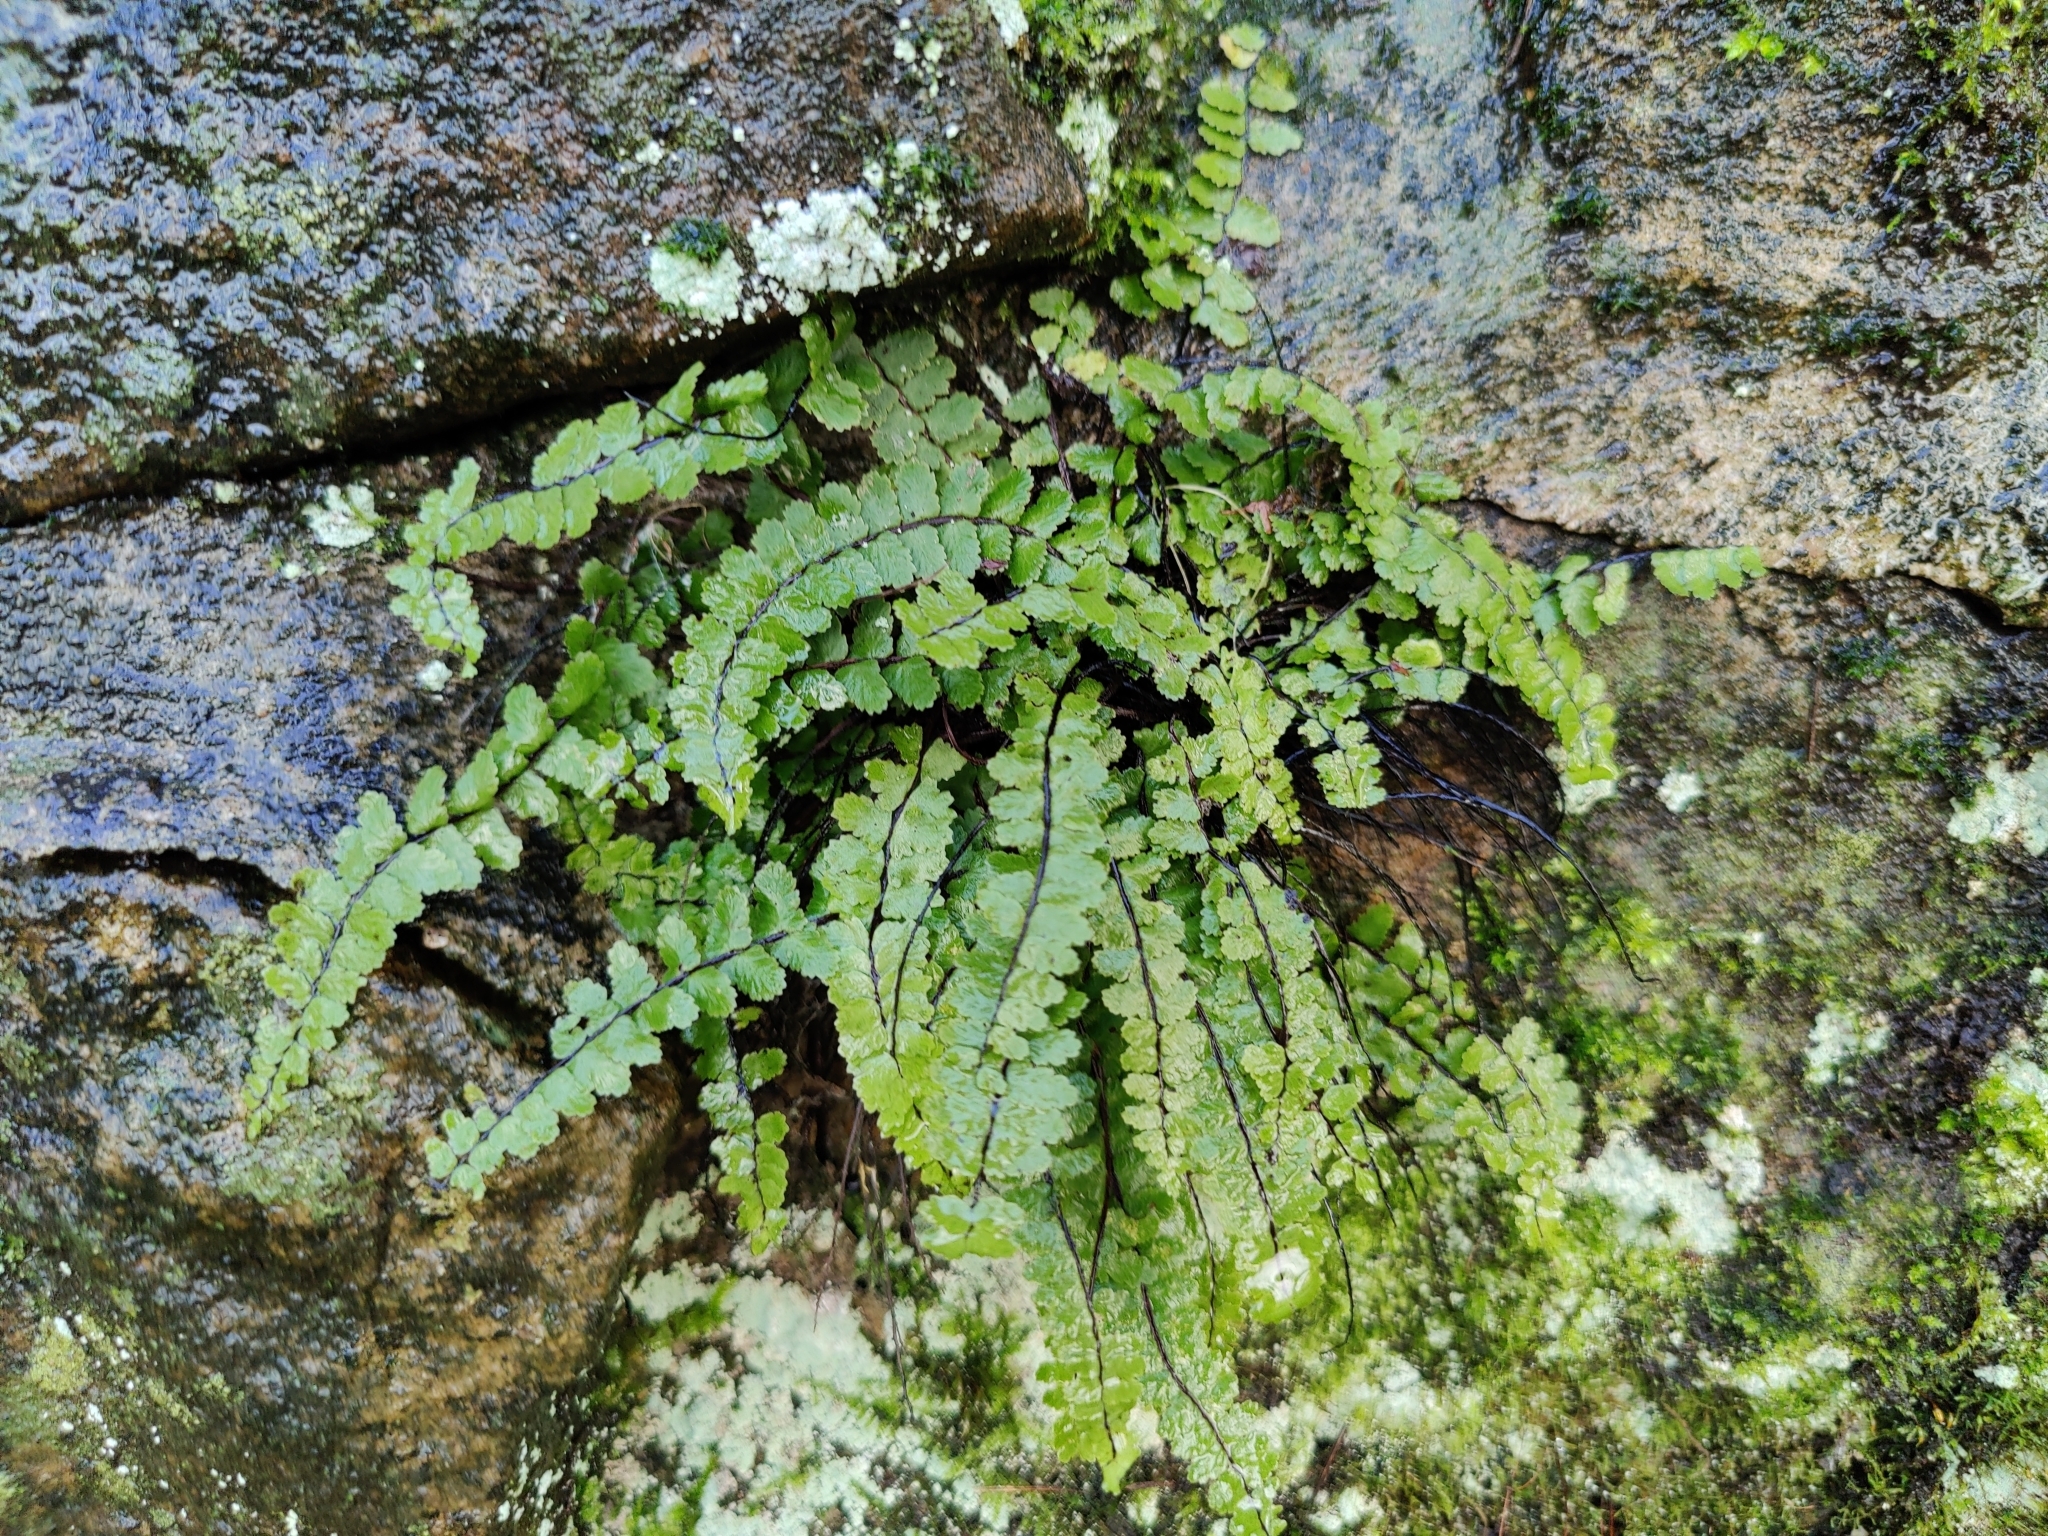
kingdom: Plantae
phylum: Tracheophyta
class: Polypodiopsida
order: Polypodiales
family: Aspleniaceae
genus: Asplenium
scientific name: Asplenium trichomanes
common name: Maidenhair spleenwort
